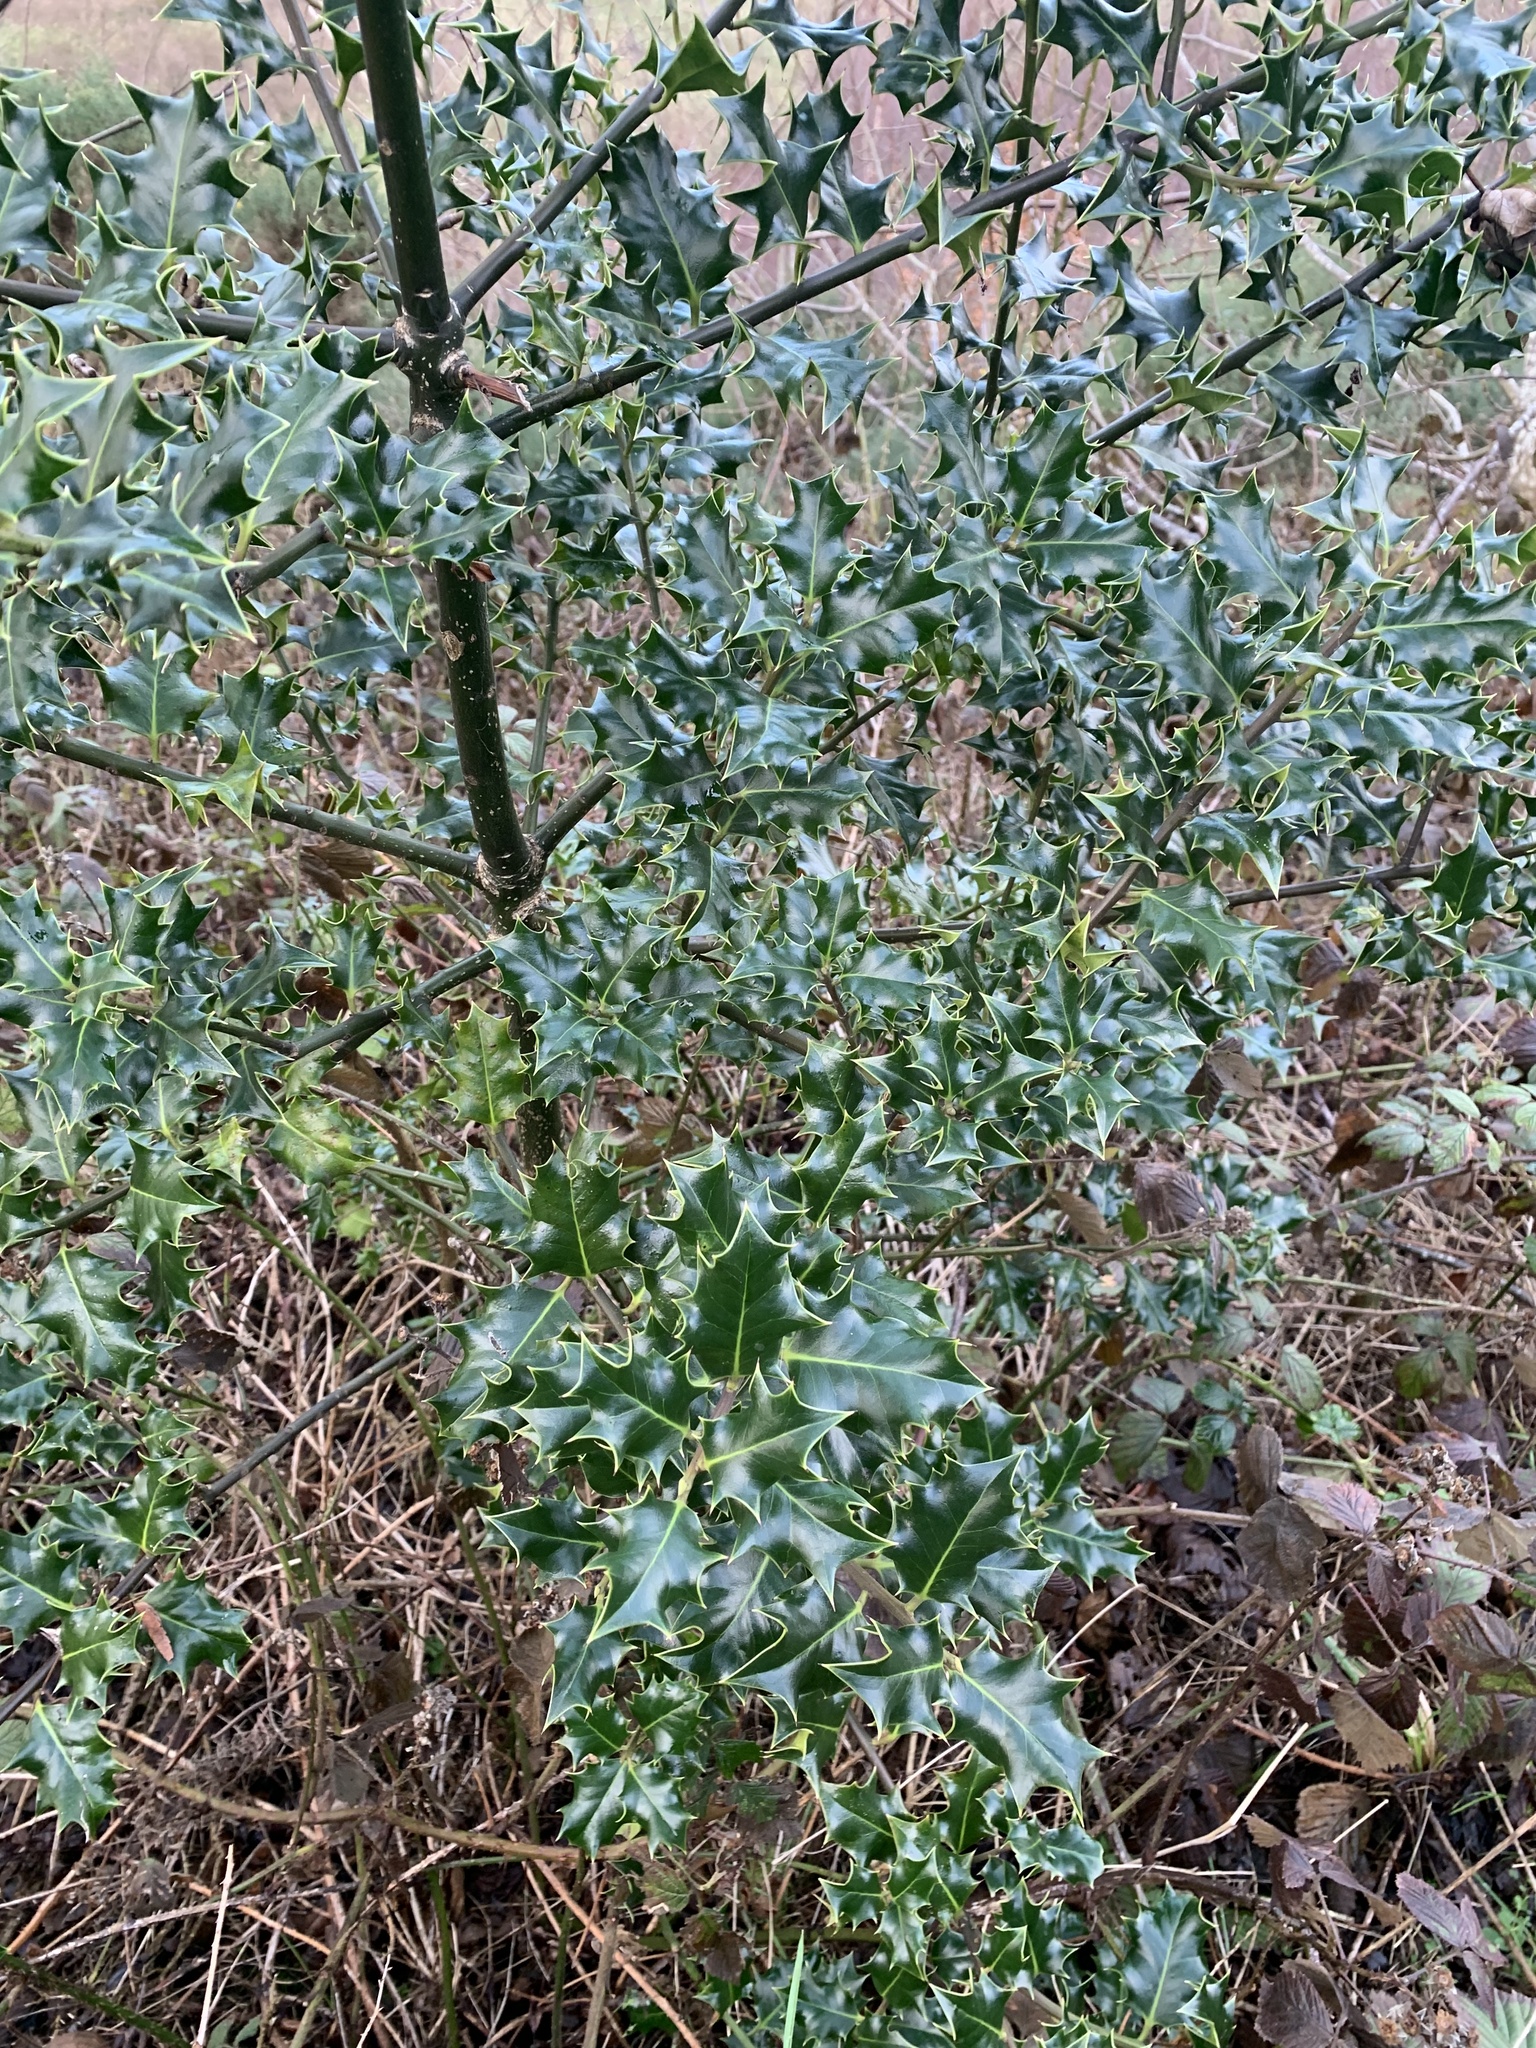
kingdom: Plantae
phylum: Tracheophyta
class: Magnoliopsida
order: Aquifoliales
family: Aquifoliaceae
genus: Ilex
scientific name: Ilex aquifolium
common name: English holly
